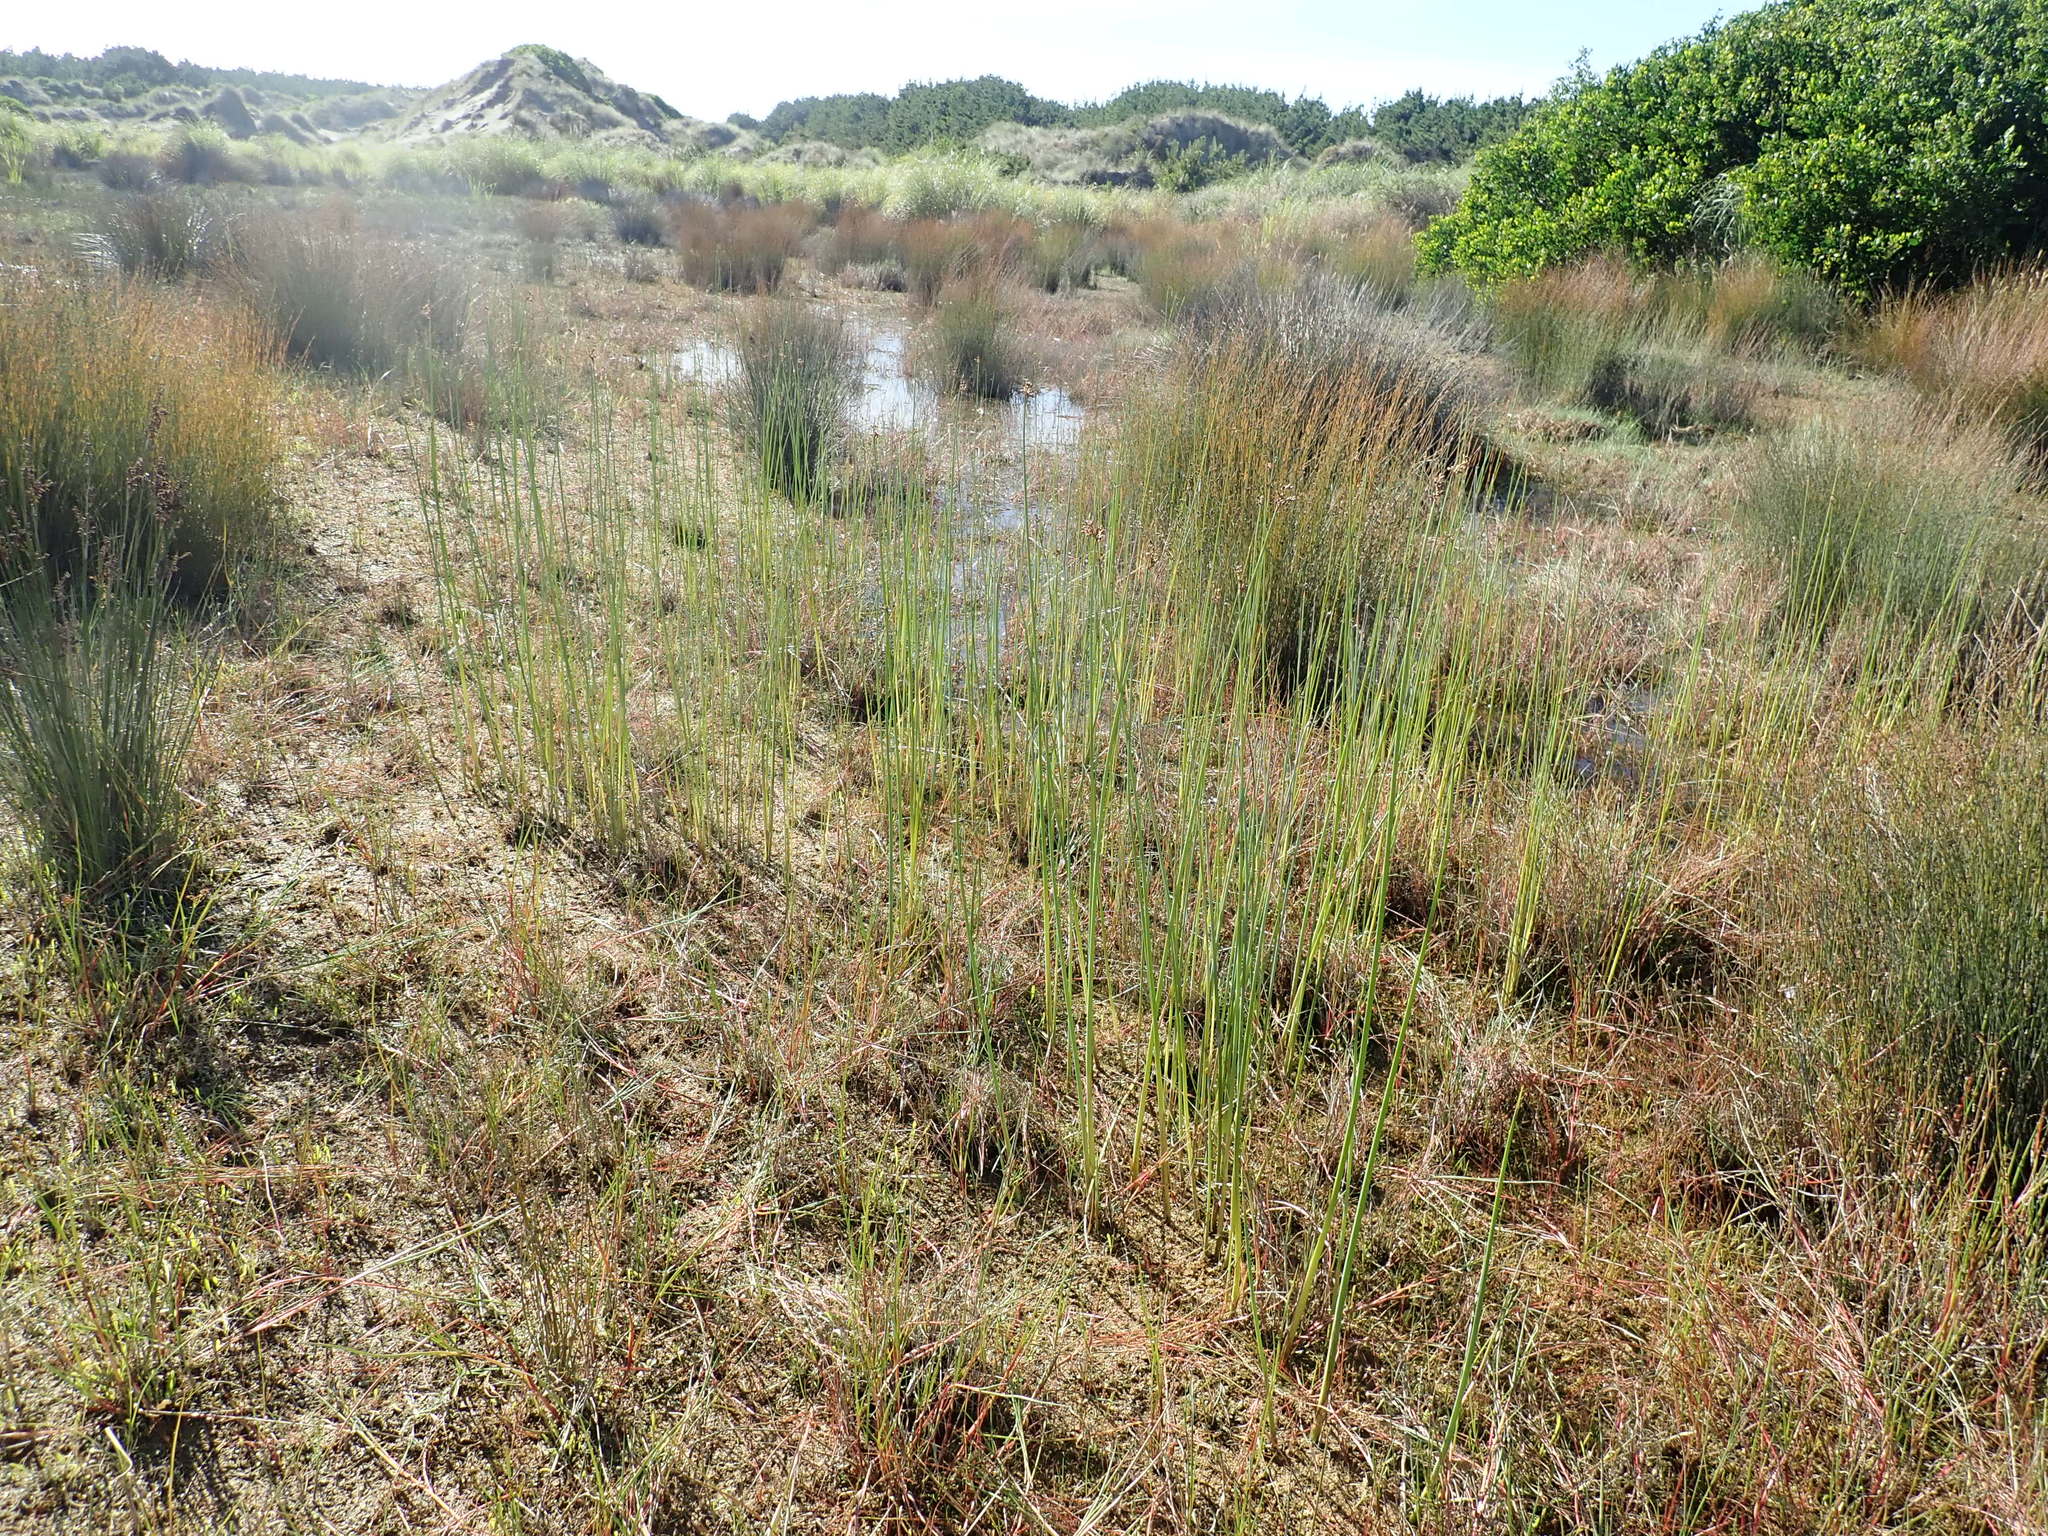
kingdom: Plantae
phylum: Tracheophyta
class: Liliopsida
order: Poales
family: Cyperaceae
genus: Schoenoplectus
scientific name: Schoenoplectus tabernaemontani
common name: Grey club-rush
